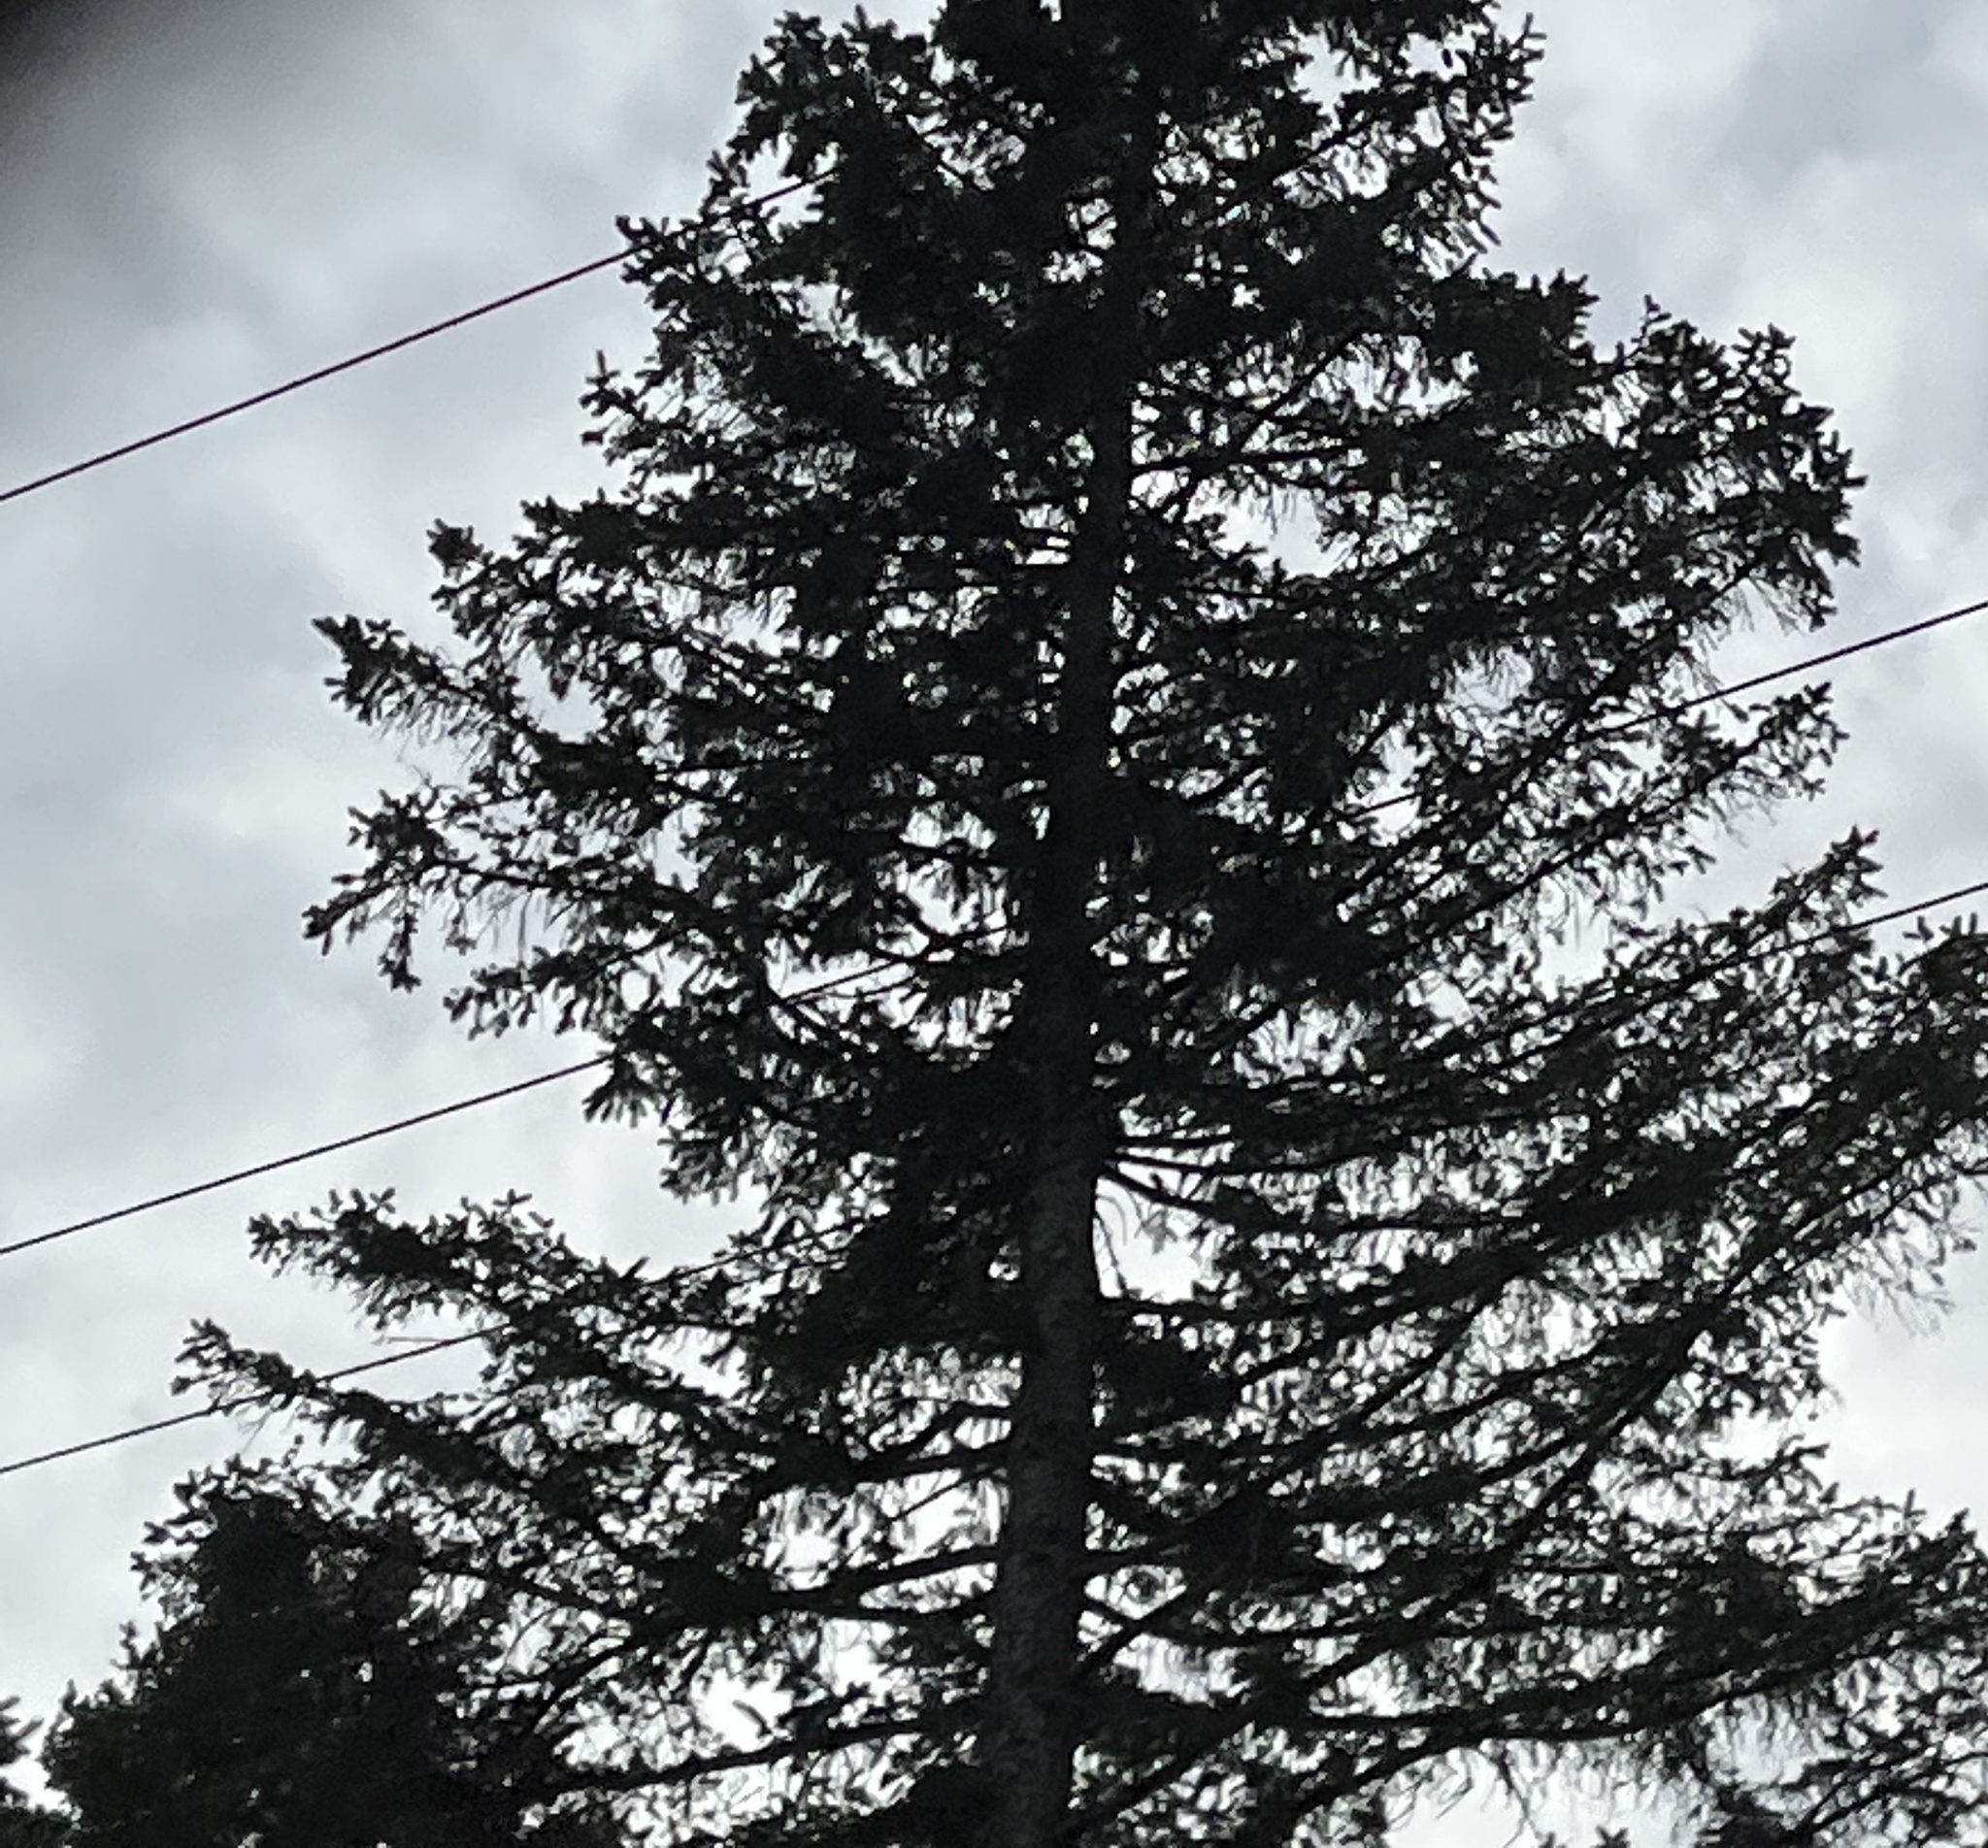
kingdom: Plantae
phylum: Tracheophyta
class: Pinopsida
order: Pinales
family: Pinaceae
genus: Picea
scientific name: Picea abies
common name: Norway spruce
